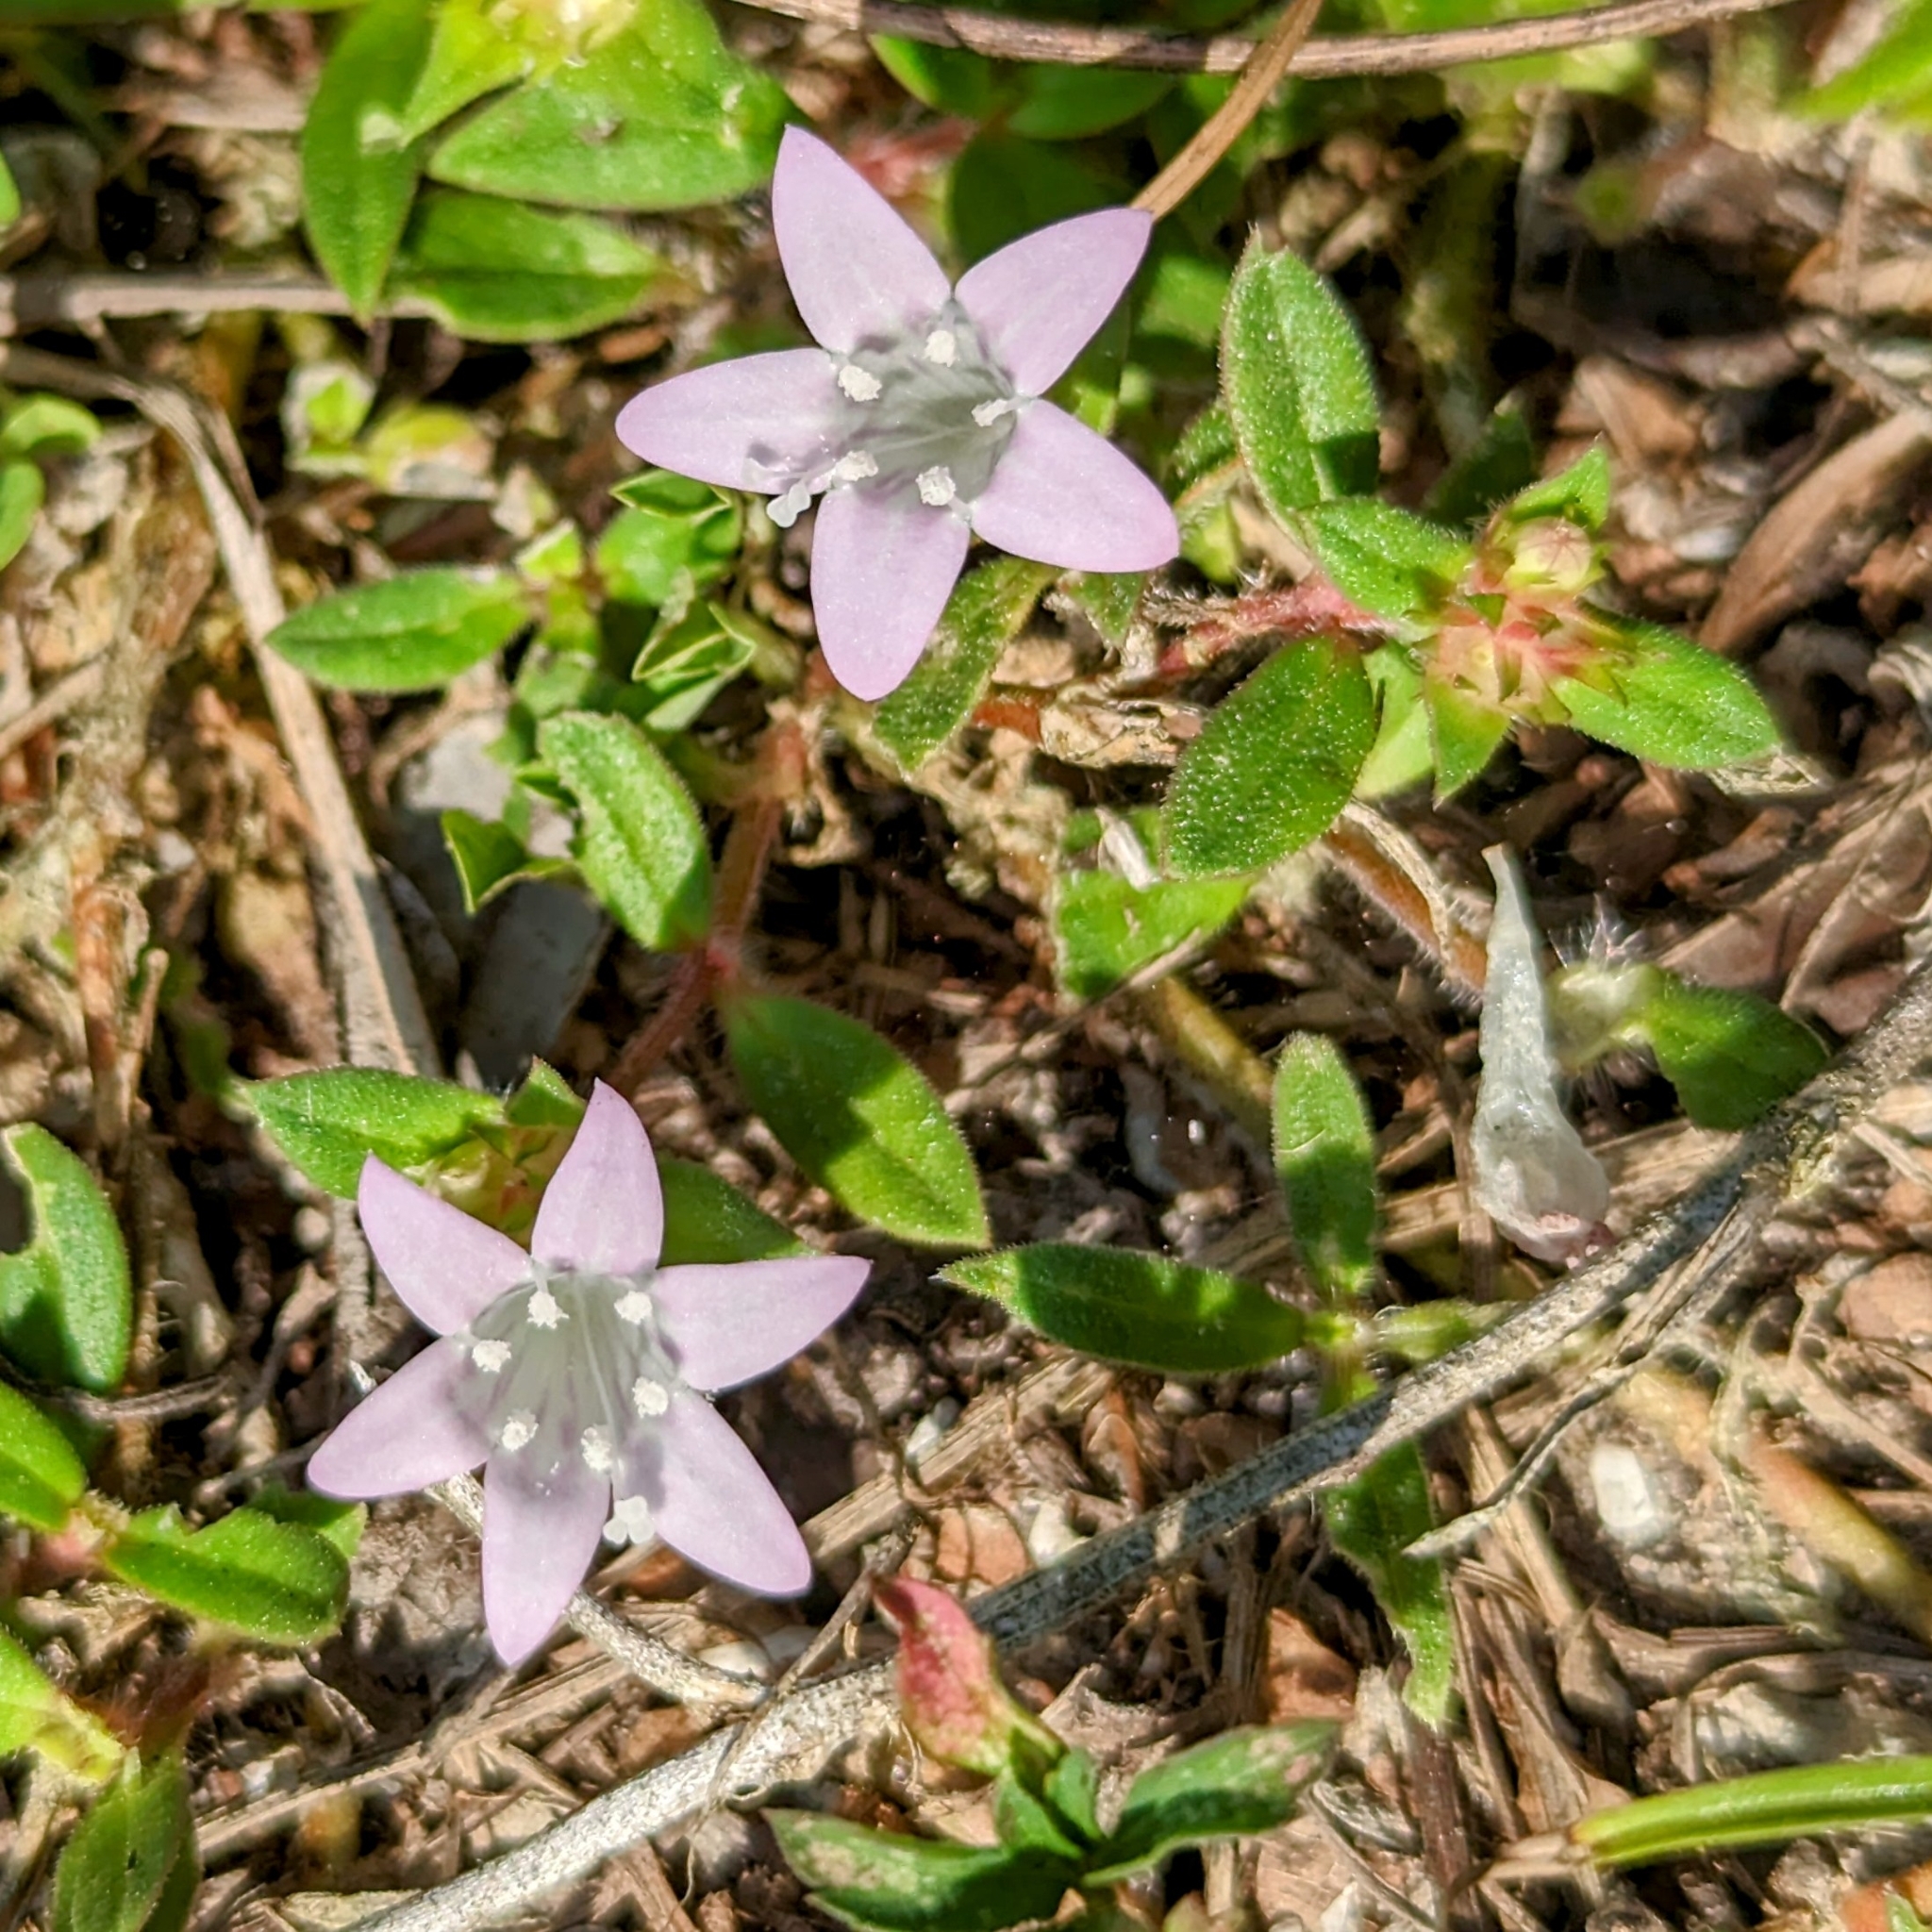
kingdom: Plantae
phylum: Tracheophyta
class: Magnoliopsida
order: Gentianales
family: Rubiaceae
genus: Richardia
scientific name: Richardia grandiflora
